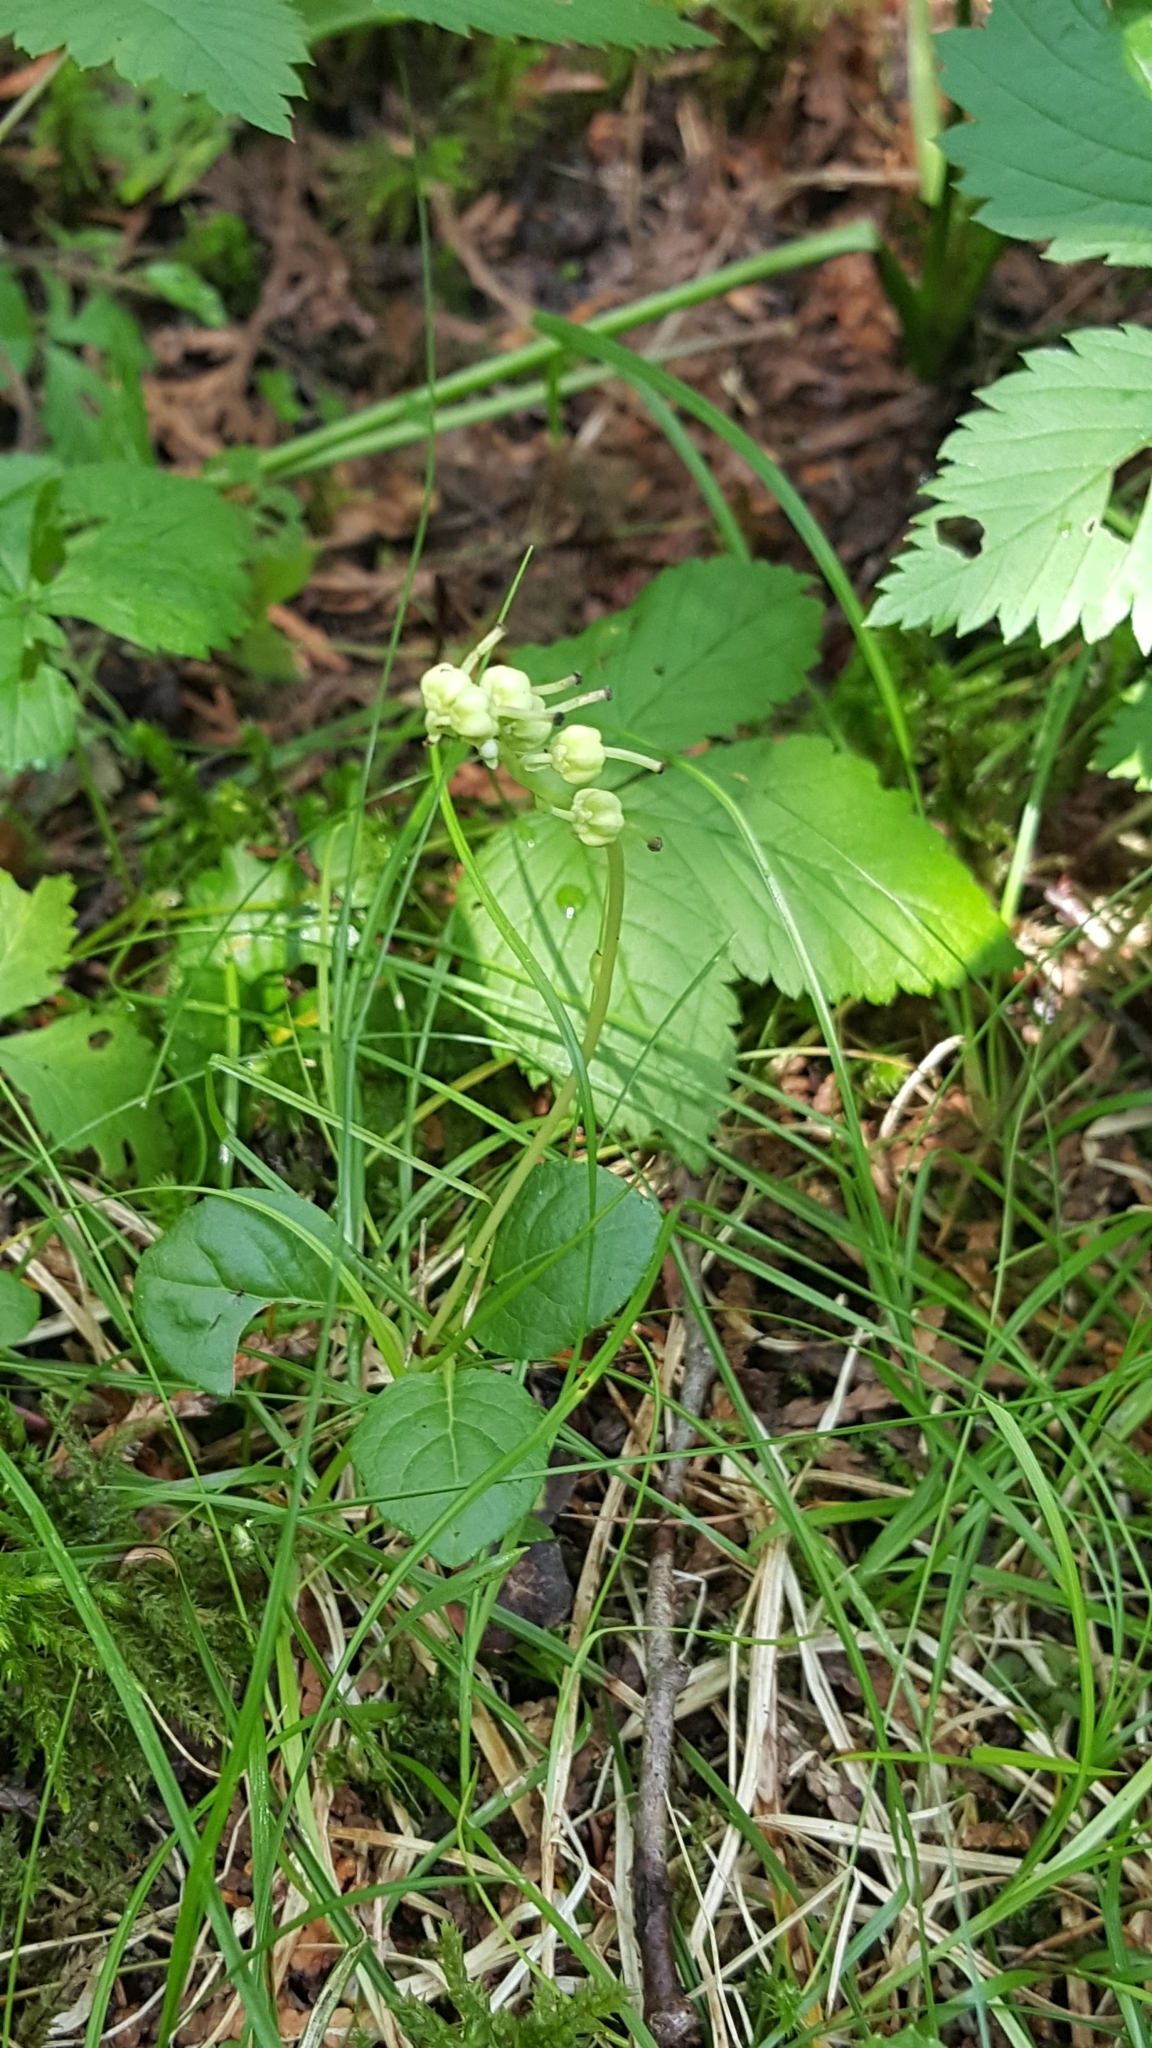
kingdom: Plantae
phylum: Tracheophyta
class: Magnoliopsida
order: Ericales
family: Ericaceae
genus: Orthilia
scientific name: Orthilia secunda
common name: One-sided orthilia
